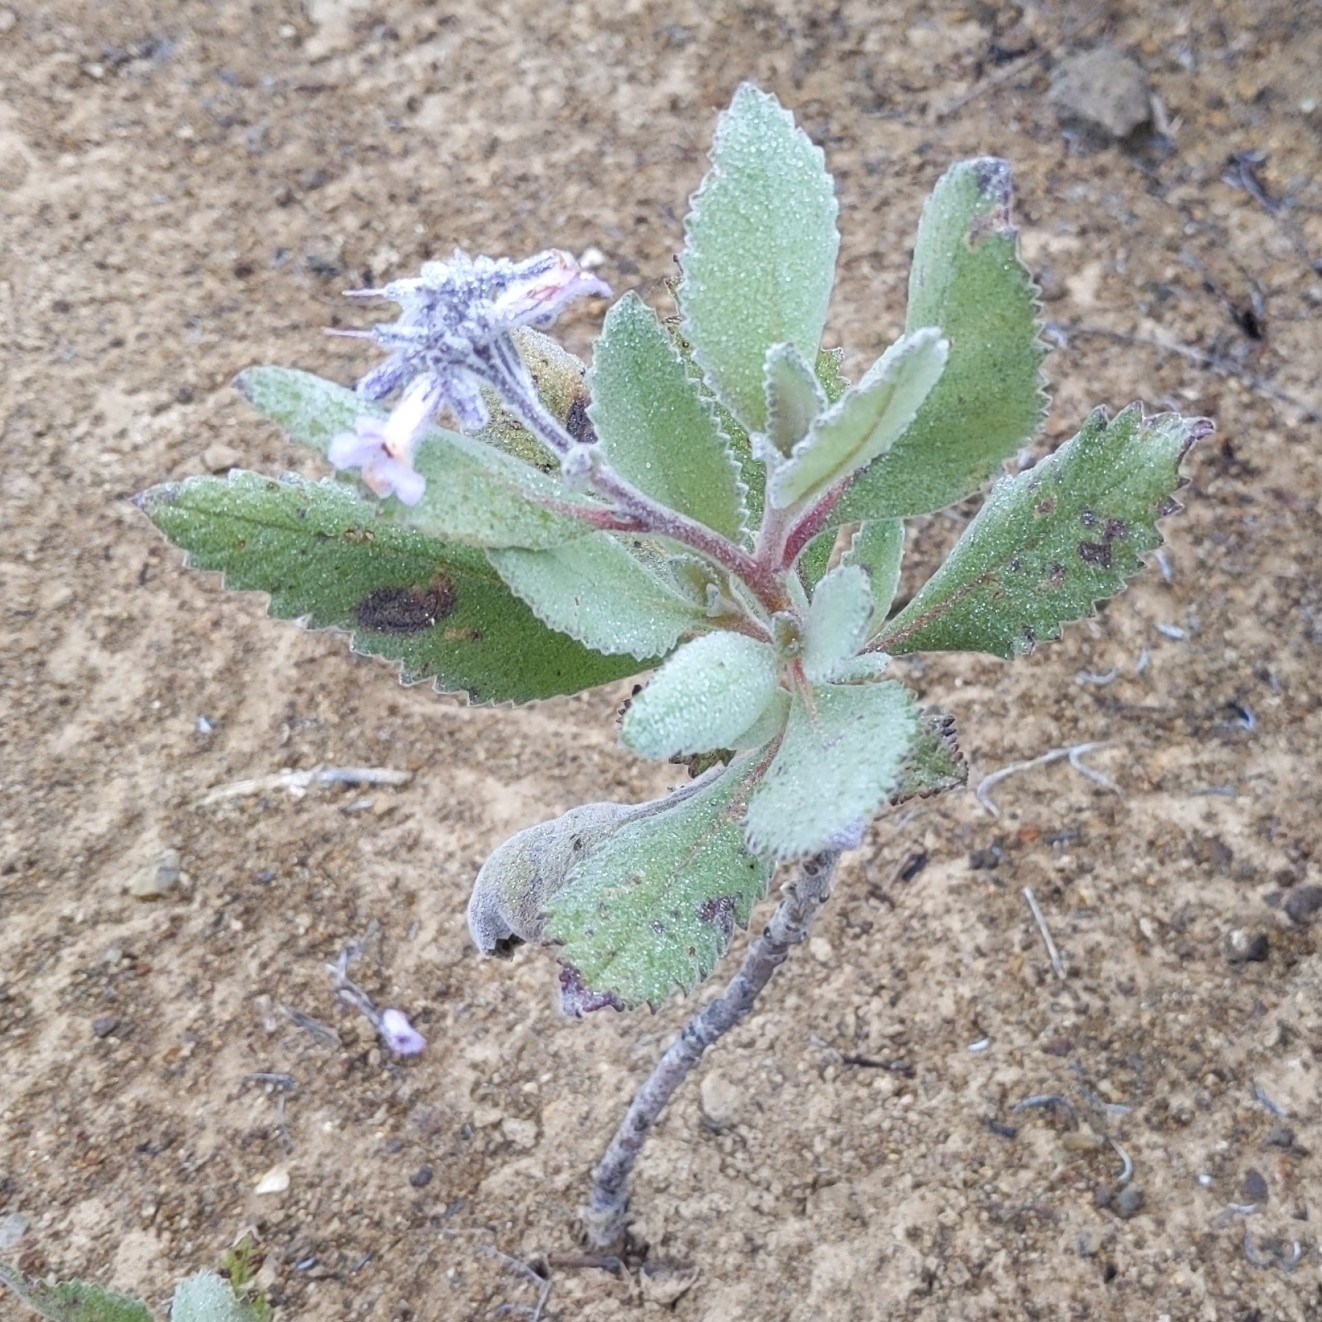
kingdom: Plantae
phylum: Tracheophyta
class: Magnoliopsida
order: Boraginales
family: Namaceae
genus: Eriodictyon
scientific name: Eriodictyon crassifolium
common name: Thick-leaf yerba-santa
